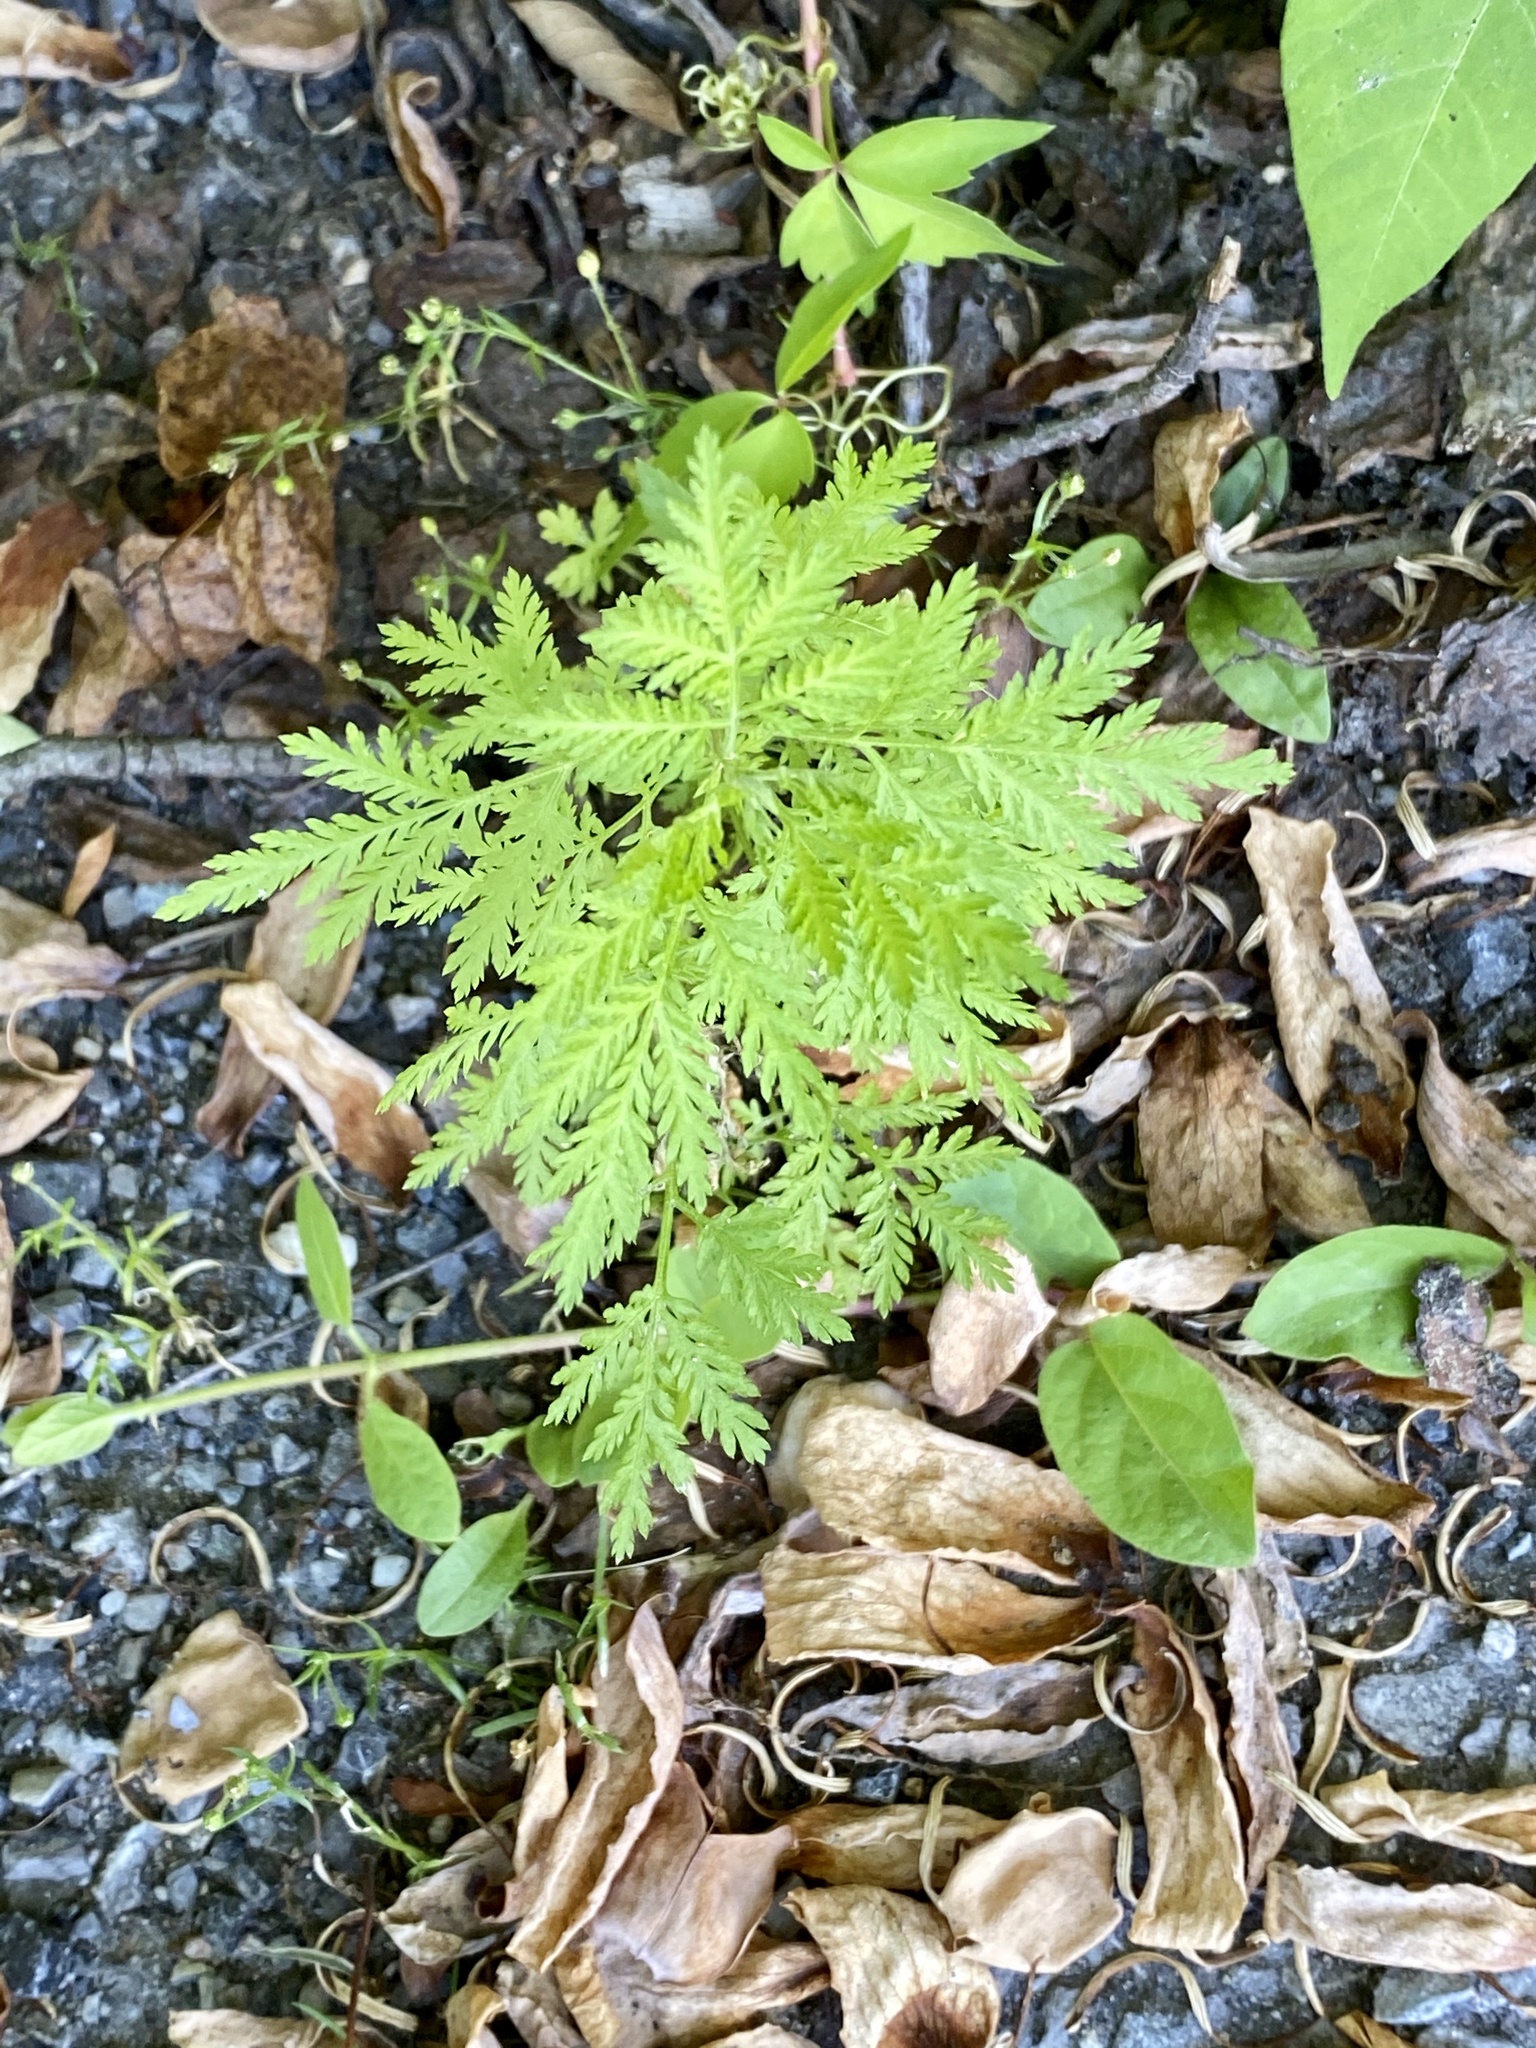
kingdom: Plantae
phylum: Tracheophyta
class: Magnoliopsida
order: Asterales
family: Asteraceae
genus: Artemisia
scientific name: Artemisia annua
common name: Sweet sagewort
